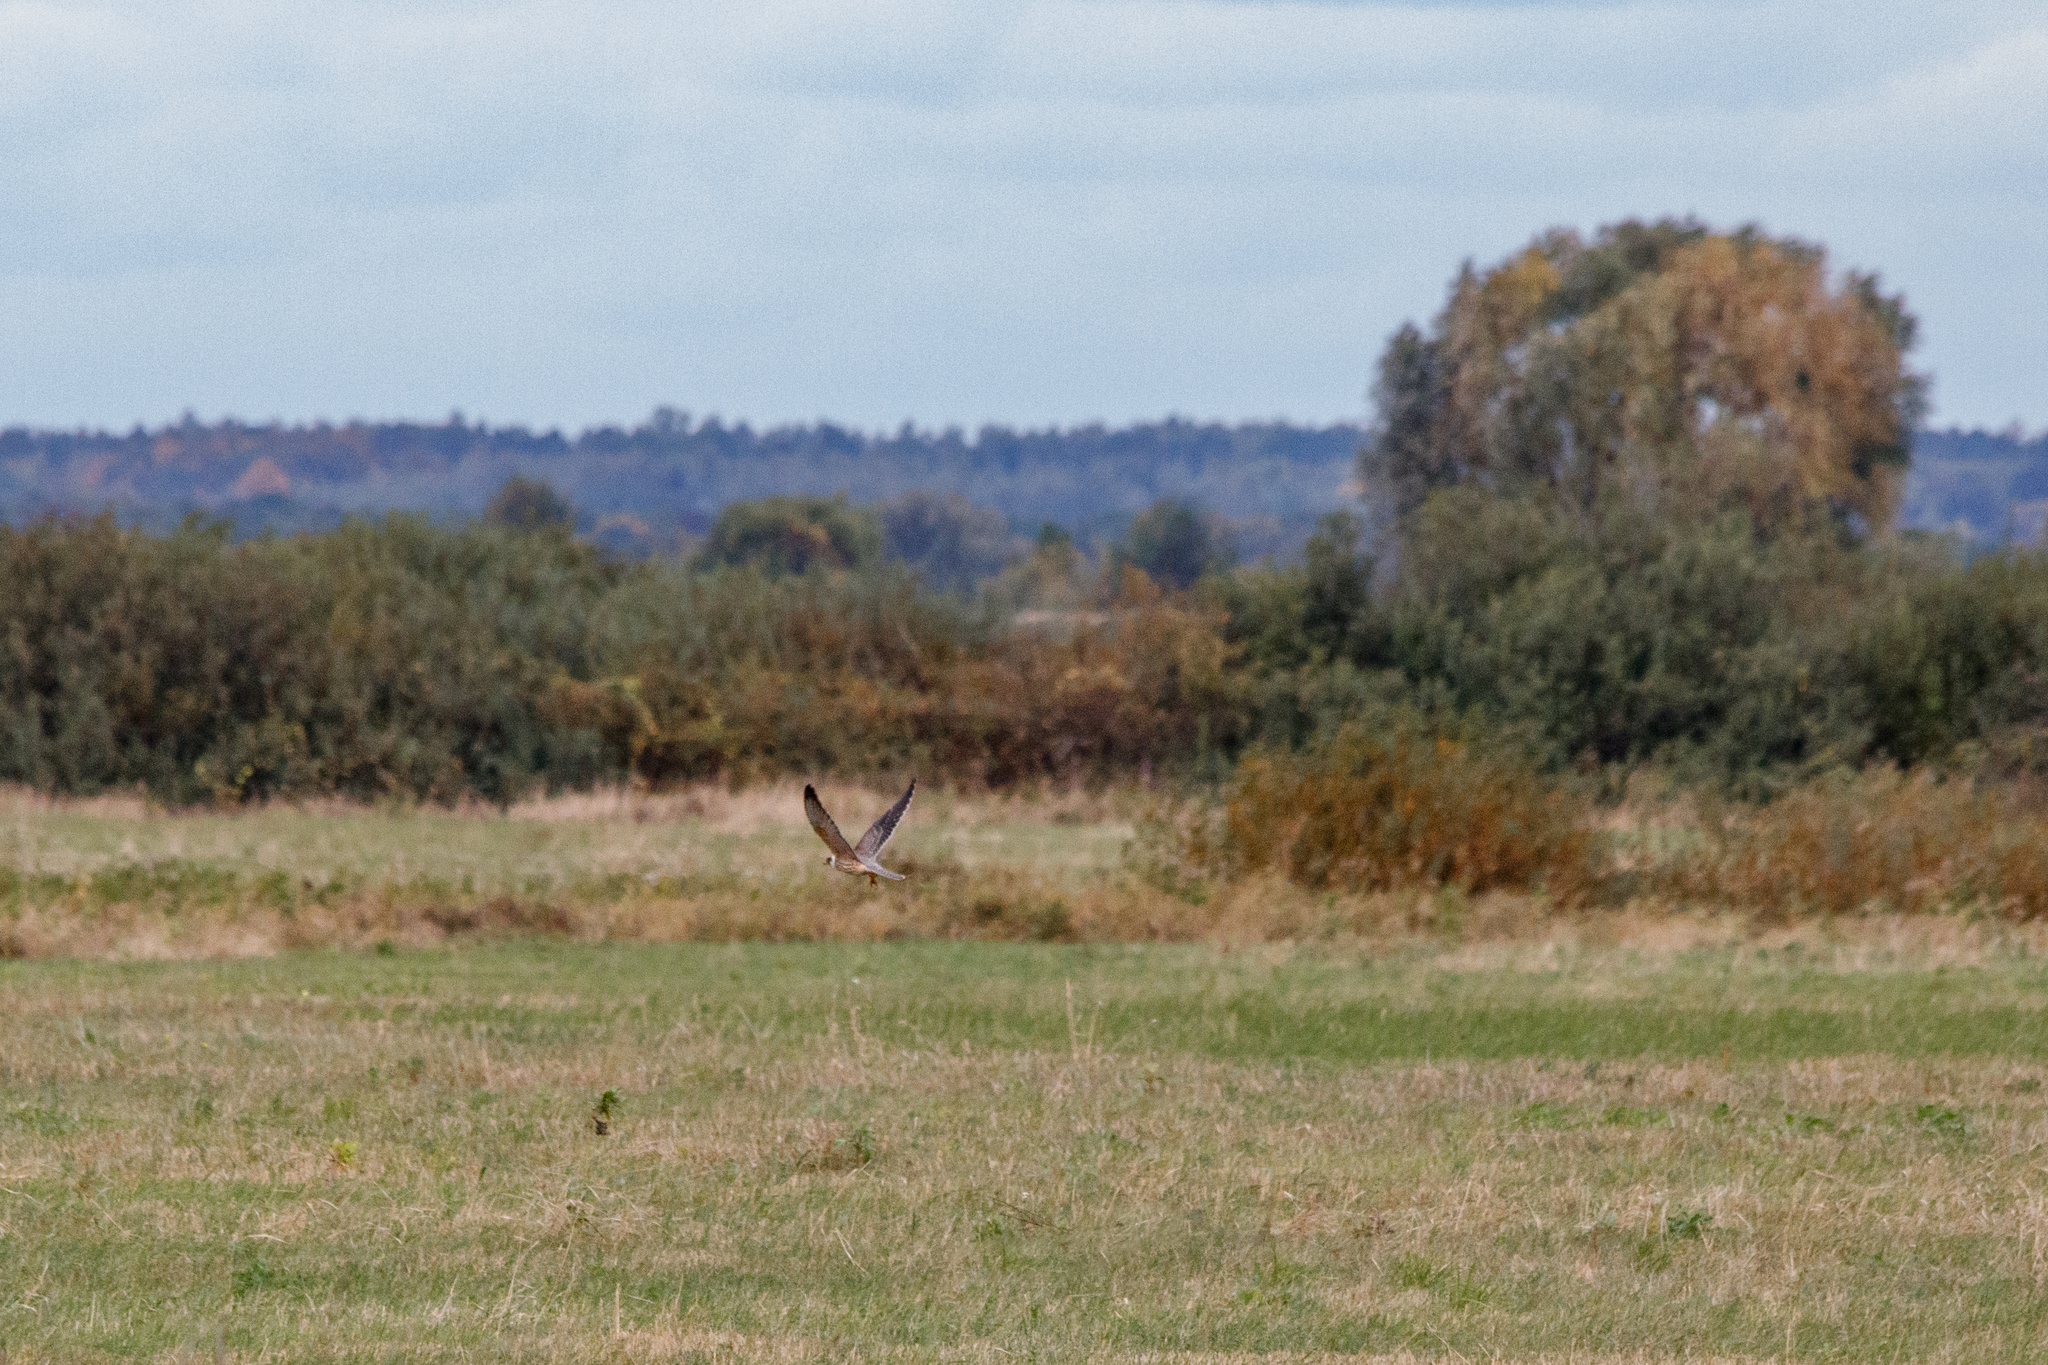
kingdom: Animalia
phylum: Chordata
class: Aves
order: Falconiformes
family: Falconidae
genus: Falco
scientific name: Falco subbuteo
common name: Eurasian hobby
